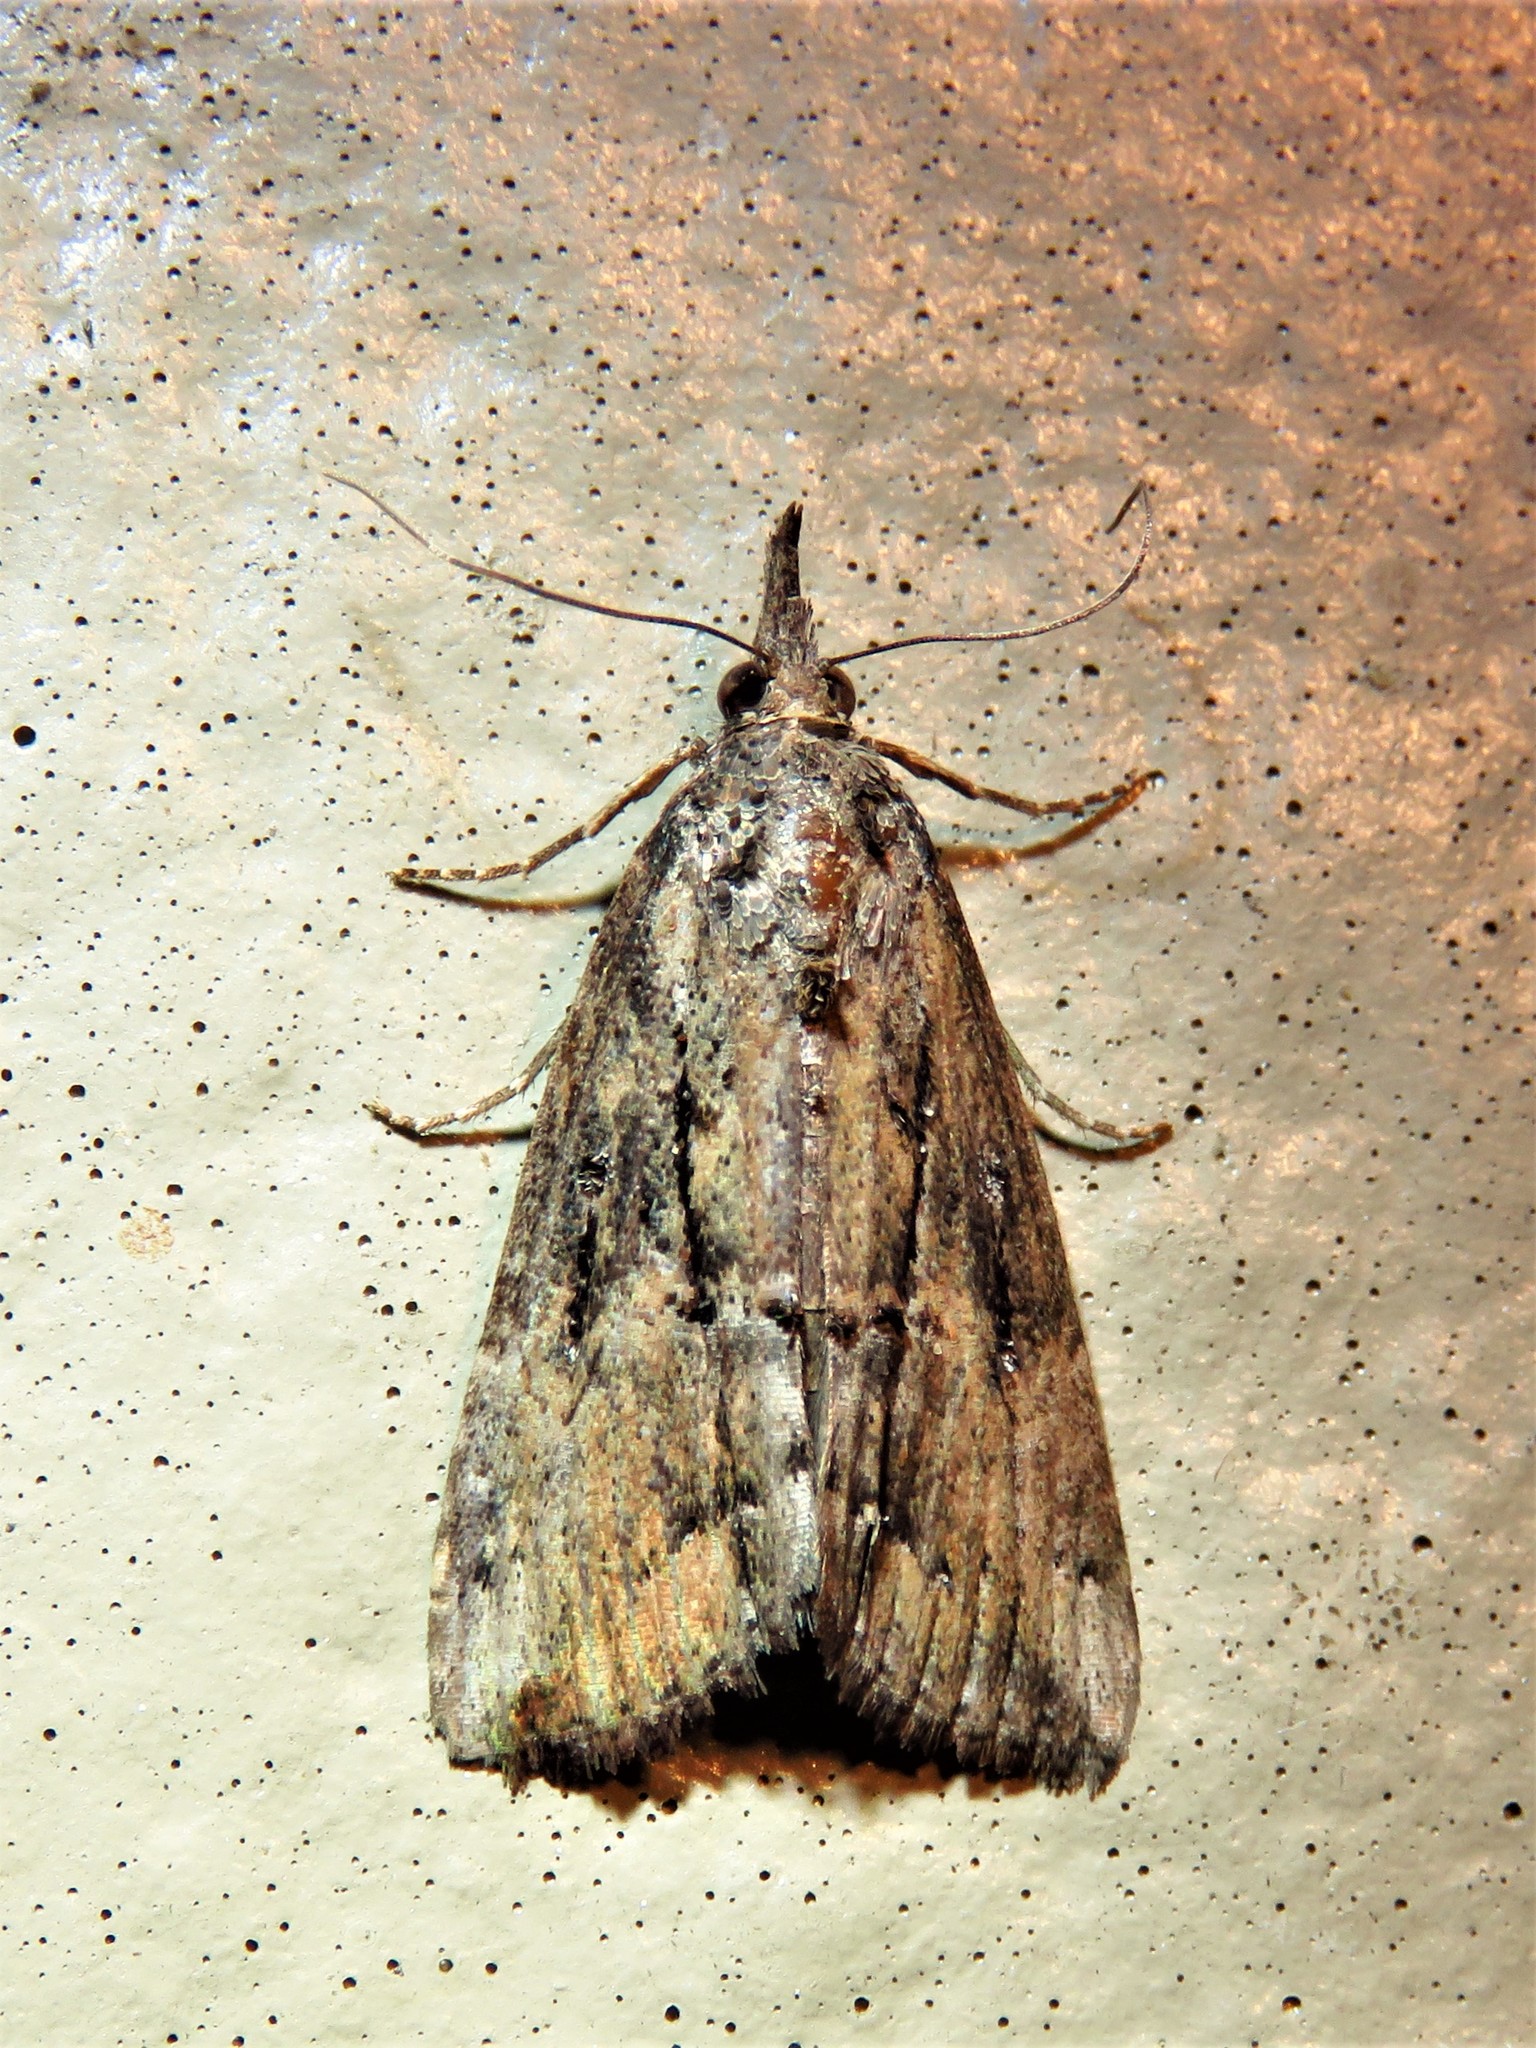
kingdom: Animalia
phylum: Arthropoda
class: Insecta
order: Lepidoptera
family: Erebidae
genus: Hypena
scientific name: Hypena scabra
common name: Green cloverworm
